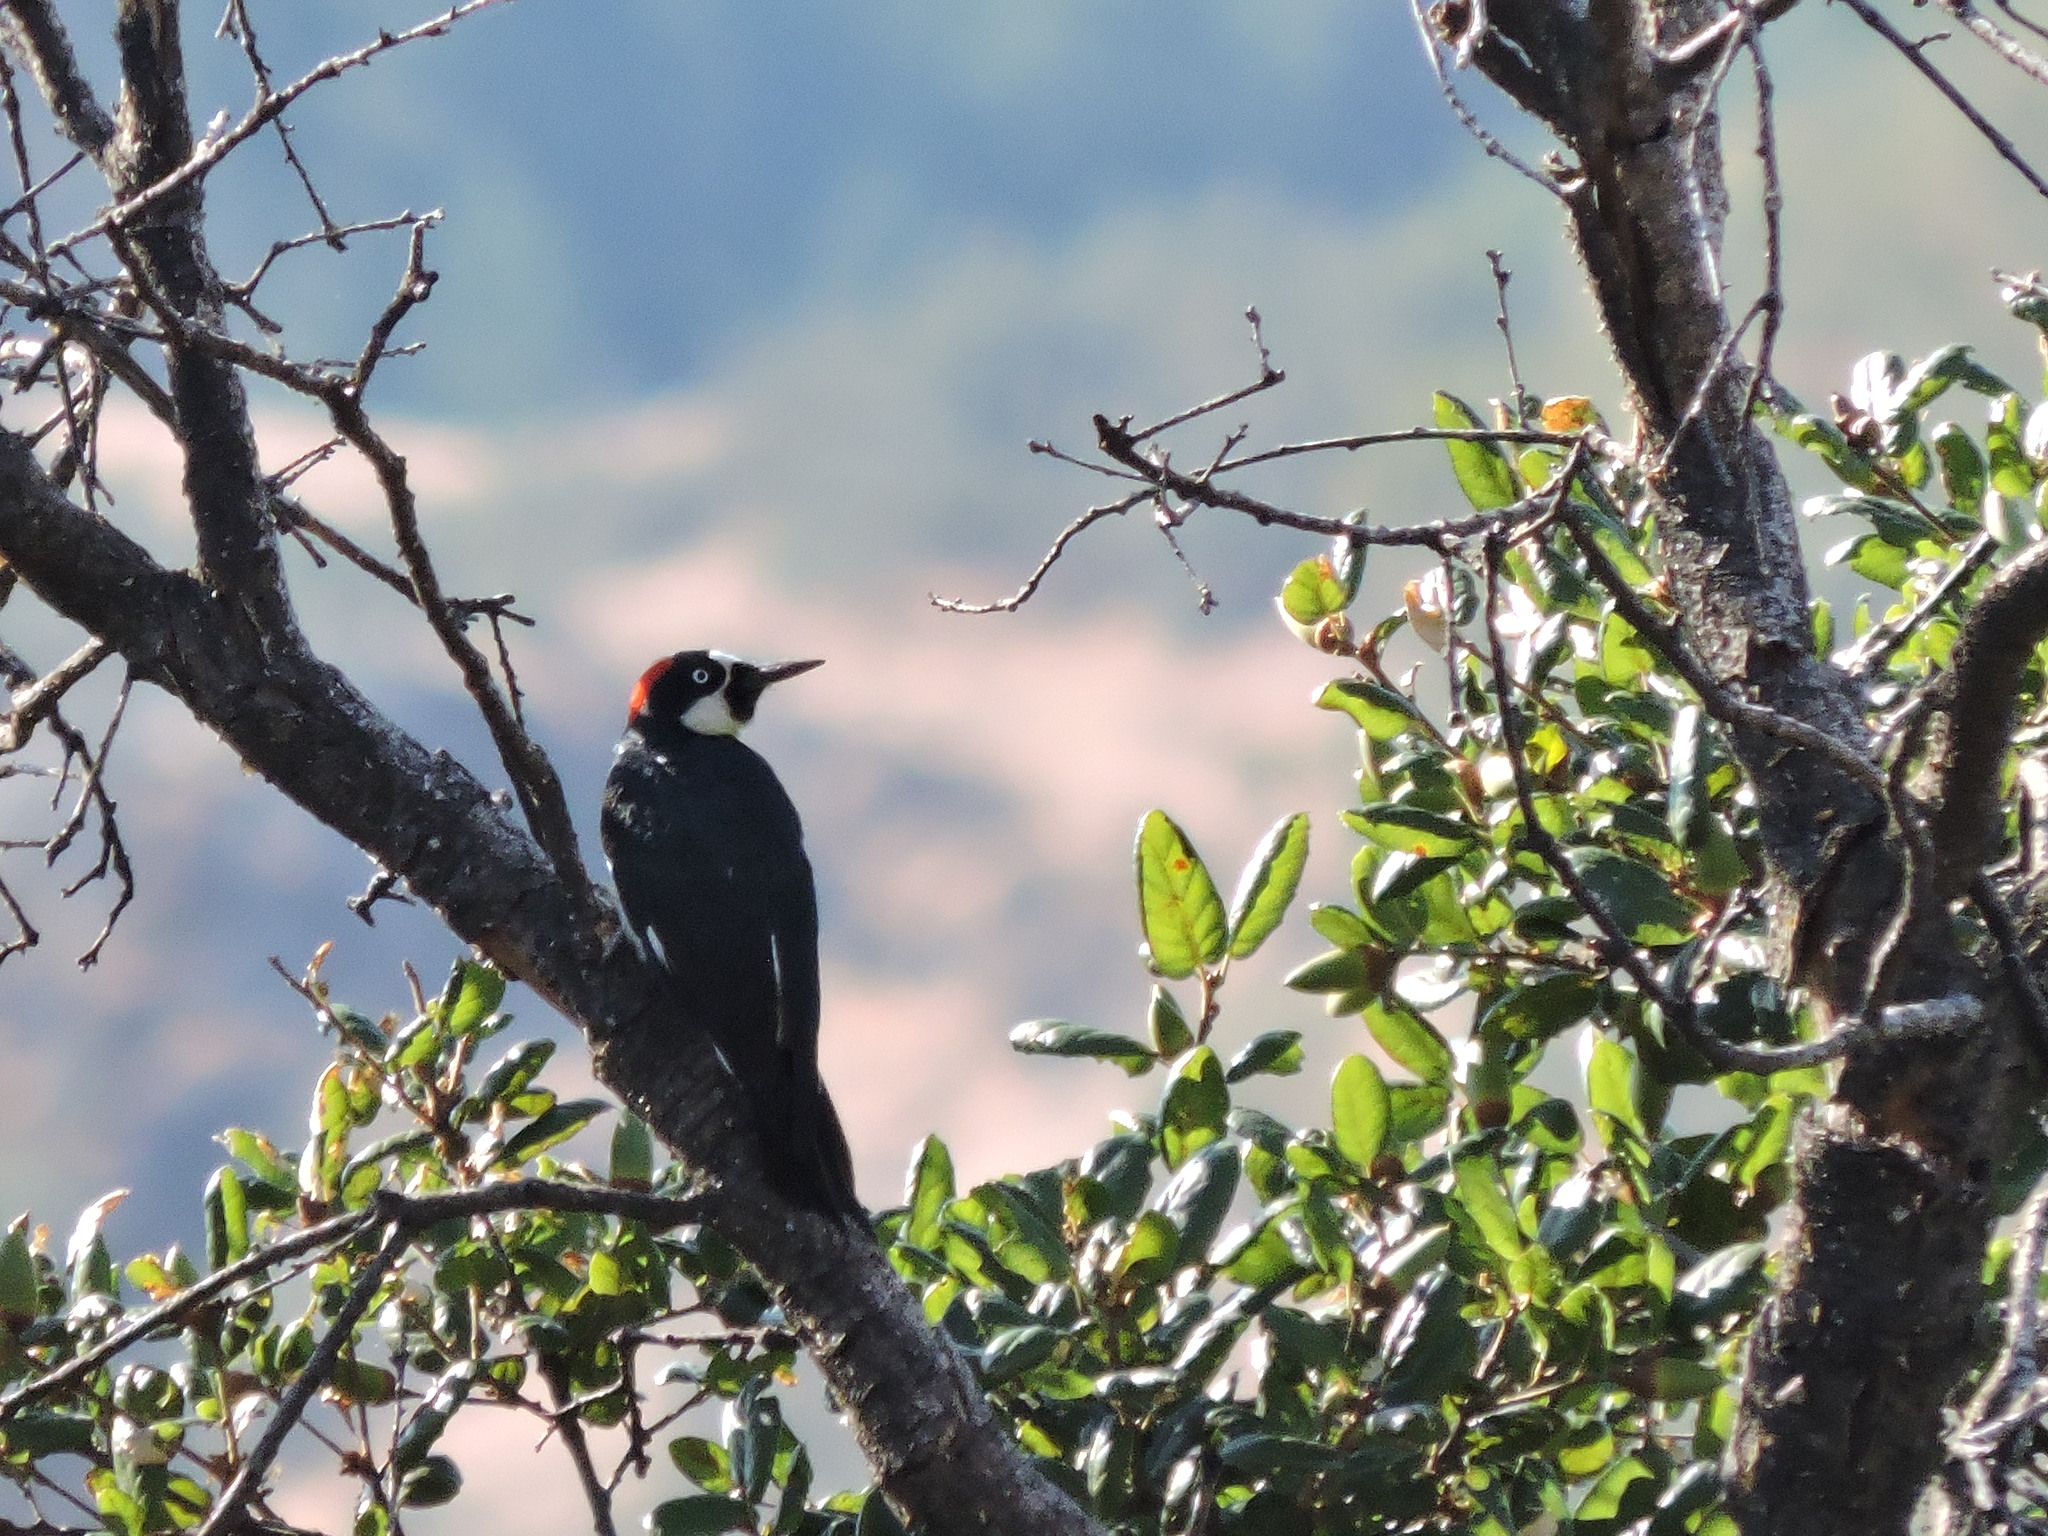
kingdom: Animalia
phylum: Chordata
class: Aves
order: Piciformes
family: Picidae
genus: Melanerpes
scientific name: Melanerpes formicivorus
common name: Acorn woodpecker
